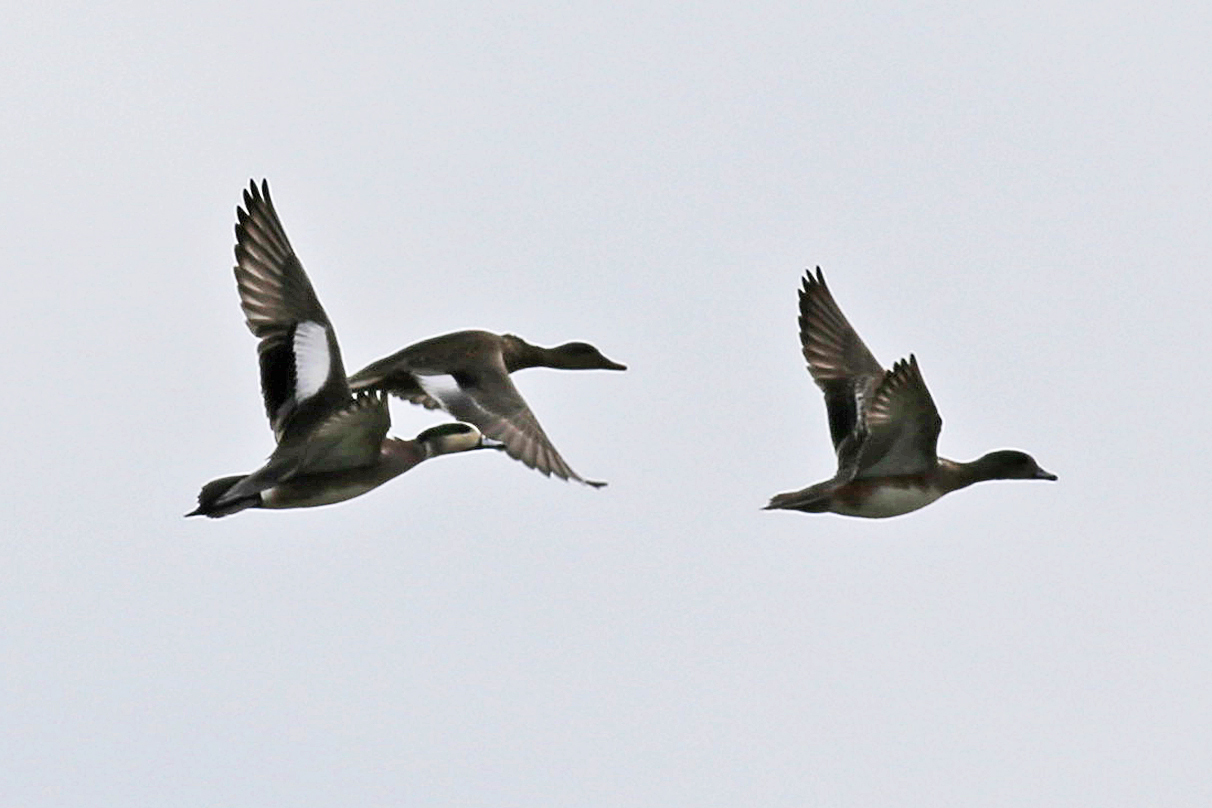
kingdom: Animalia
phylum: Chordata
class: Aves
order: Anseriformes
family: Anatidae
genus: Mareca
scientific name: Mareca americana
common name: American wigeon
